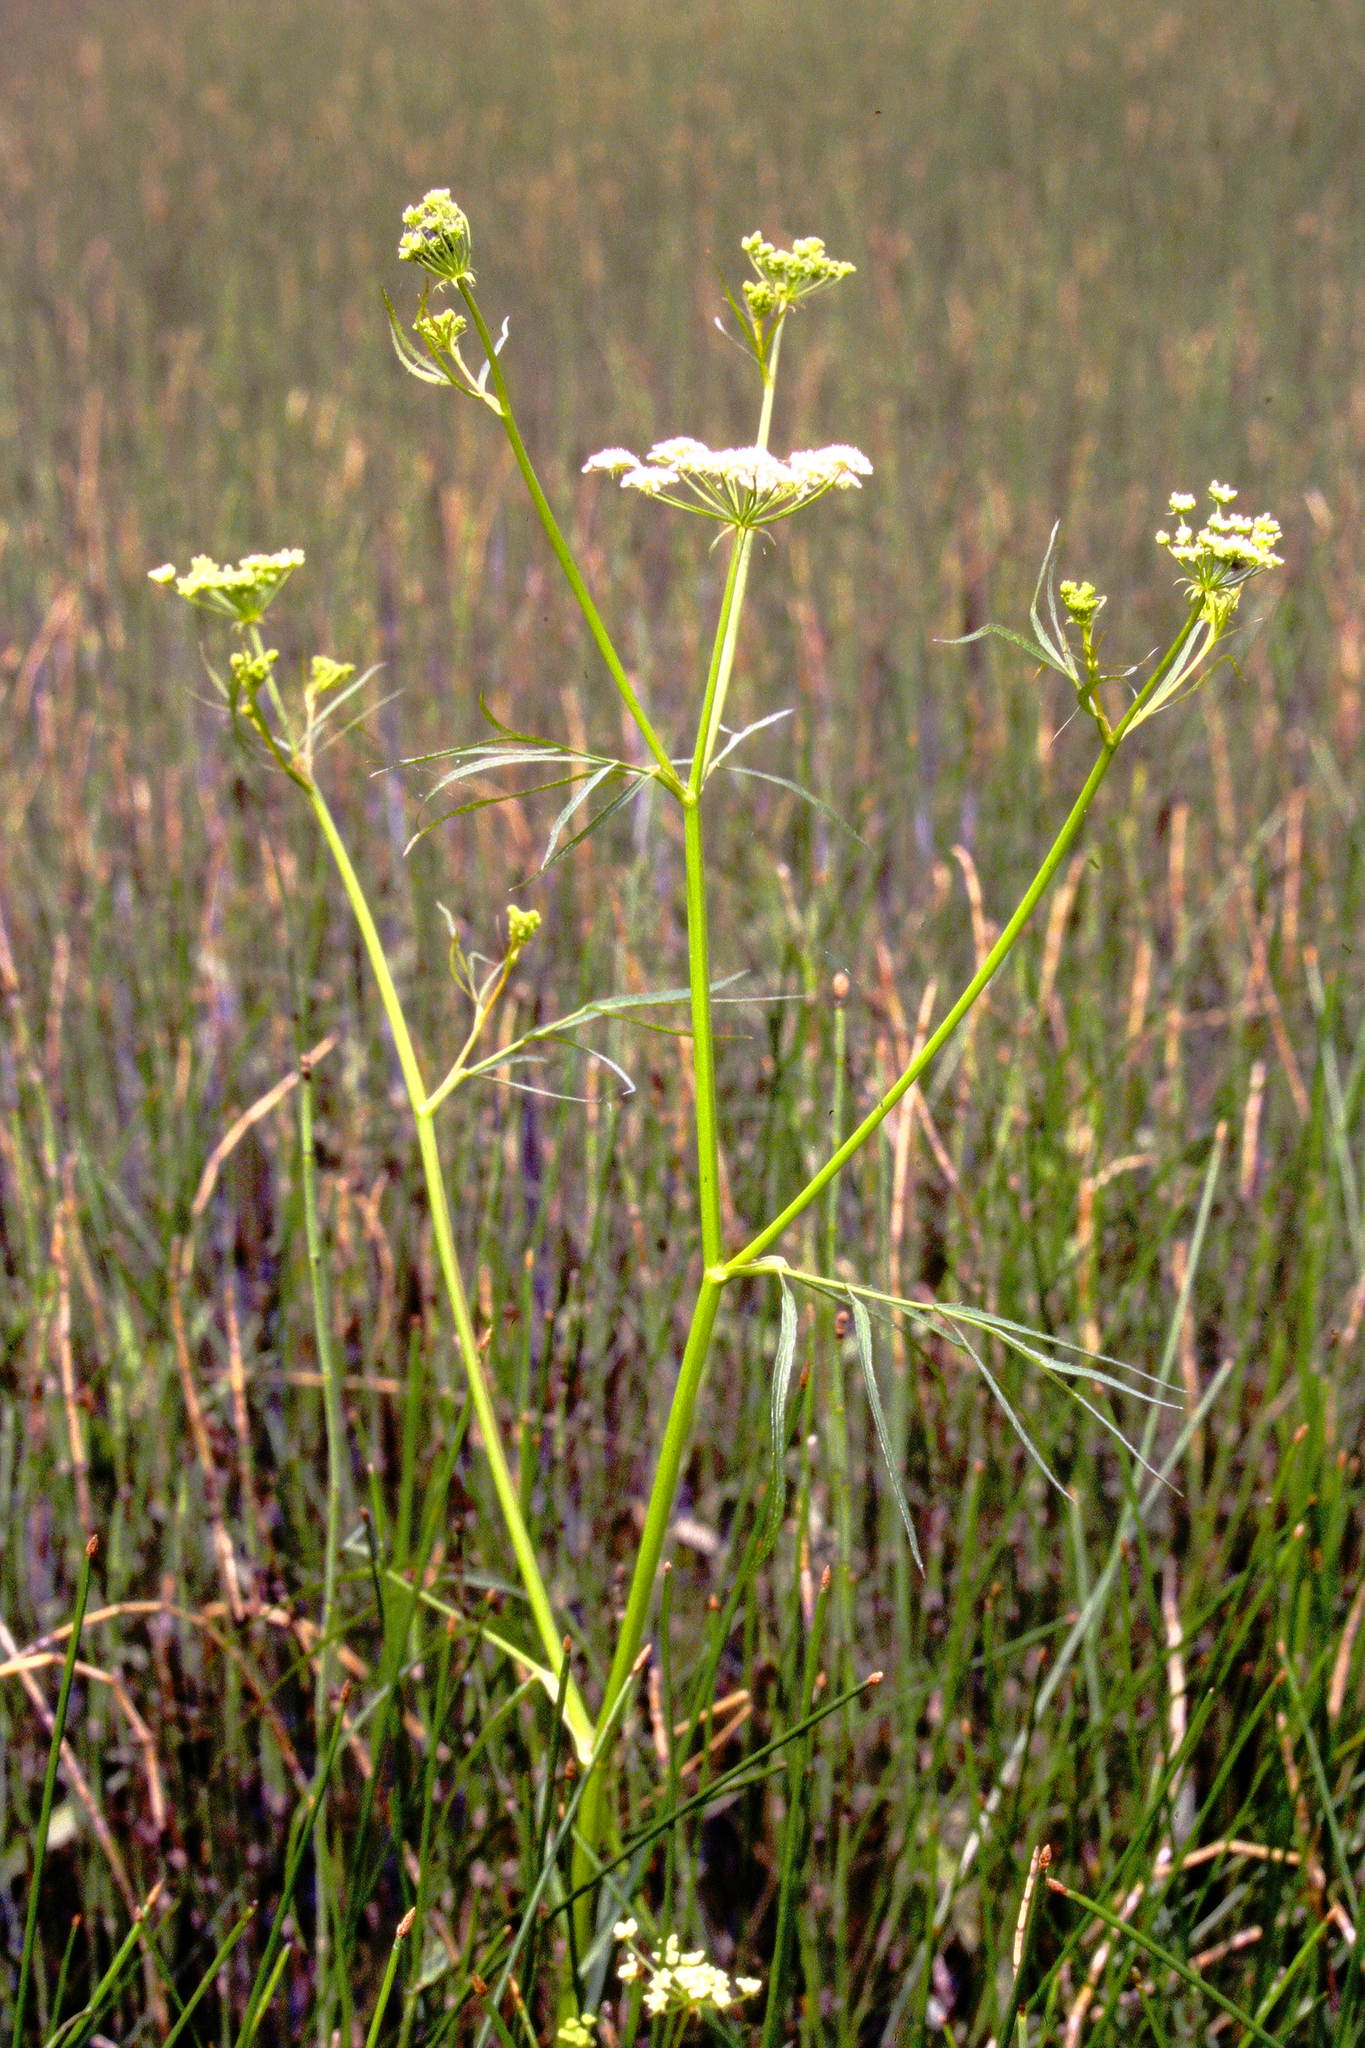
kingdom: Plantae
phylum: Tracheophyta
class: Magnoliopsida
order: Apiales
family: Apiaceae
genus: Sium
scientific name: Sium suave
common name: Hemlock water-parsnip
